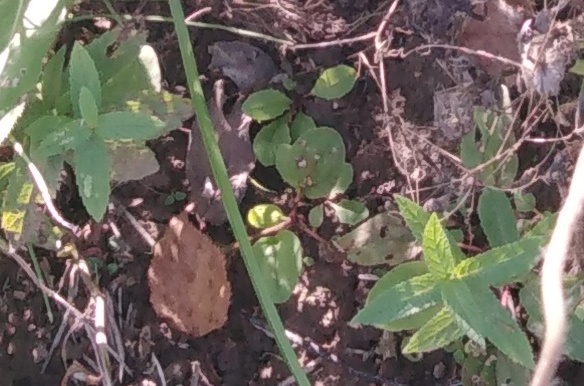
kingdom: Plantae
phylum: Tracheophyta
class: Magnoliopsida
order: Lamiales
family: Lamiaceae
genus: Prunella
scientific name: Prunella vulgaris
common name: Heal-all
